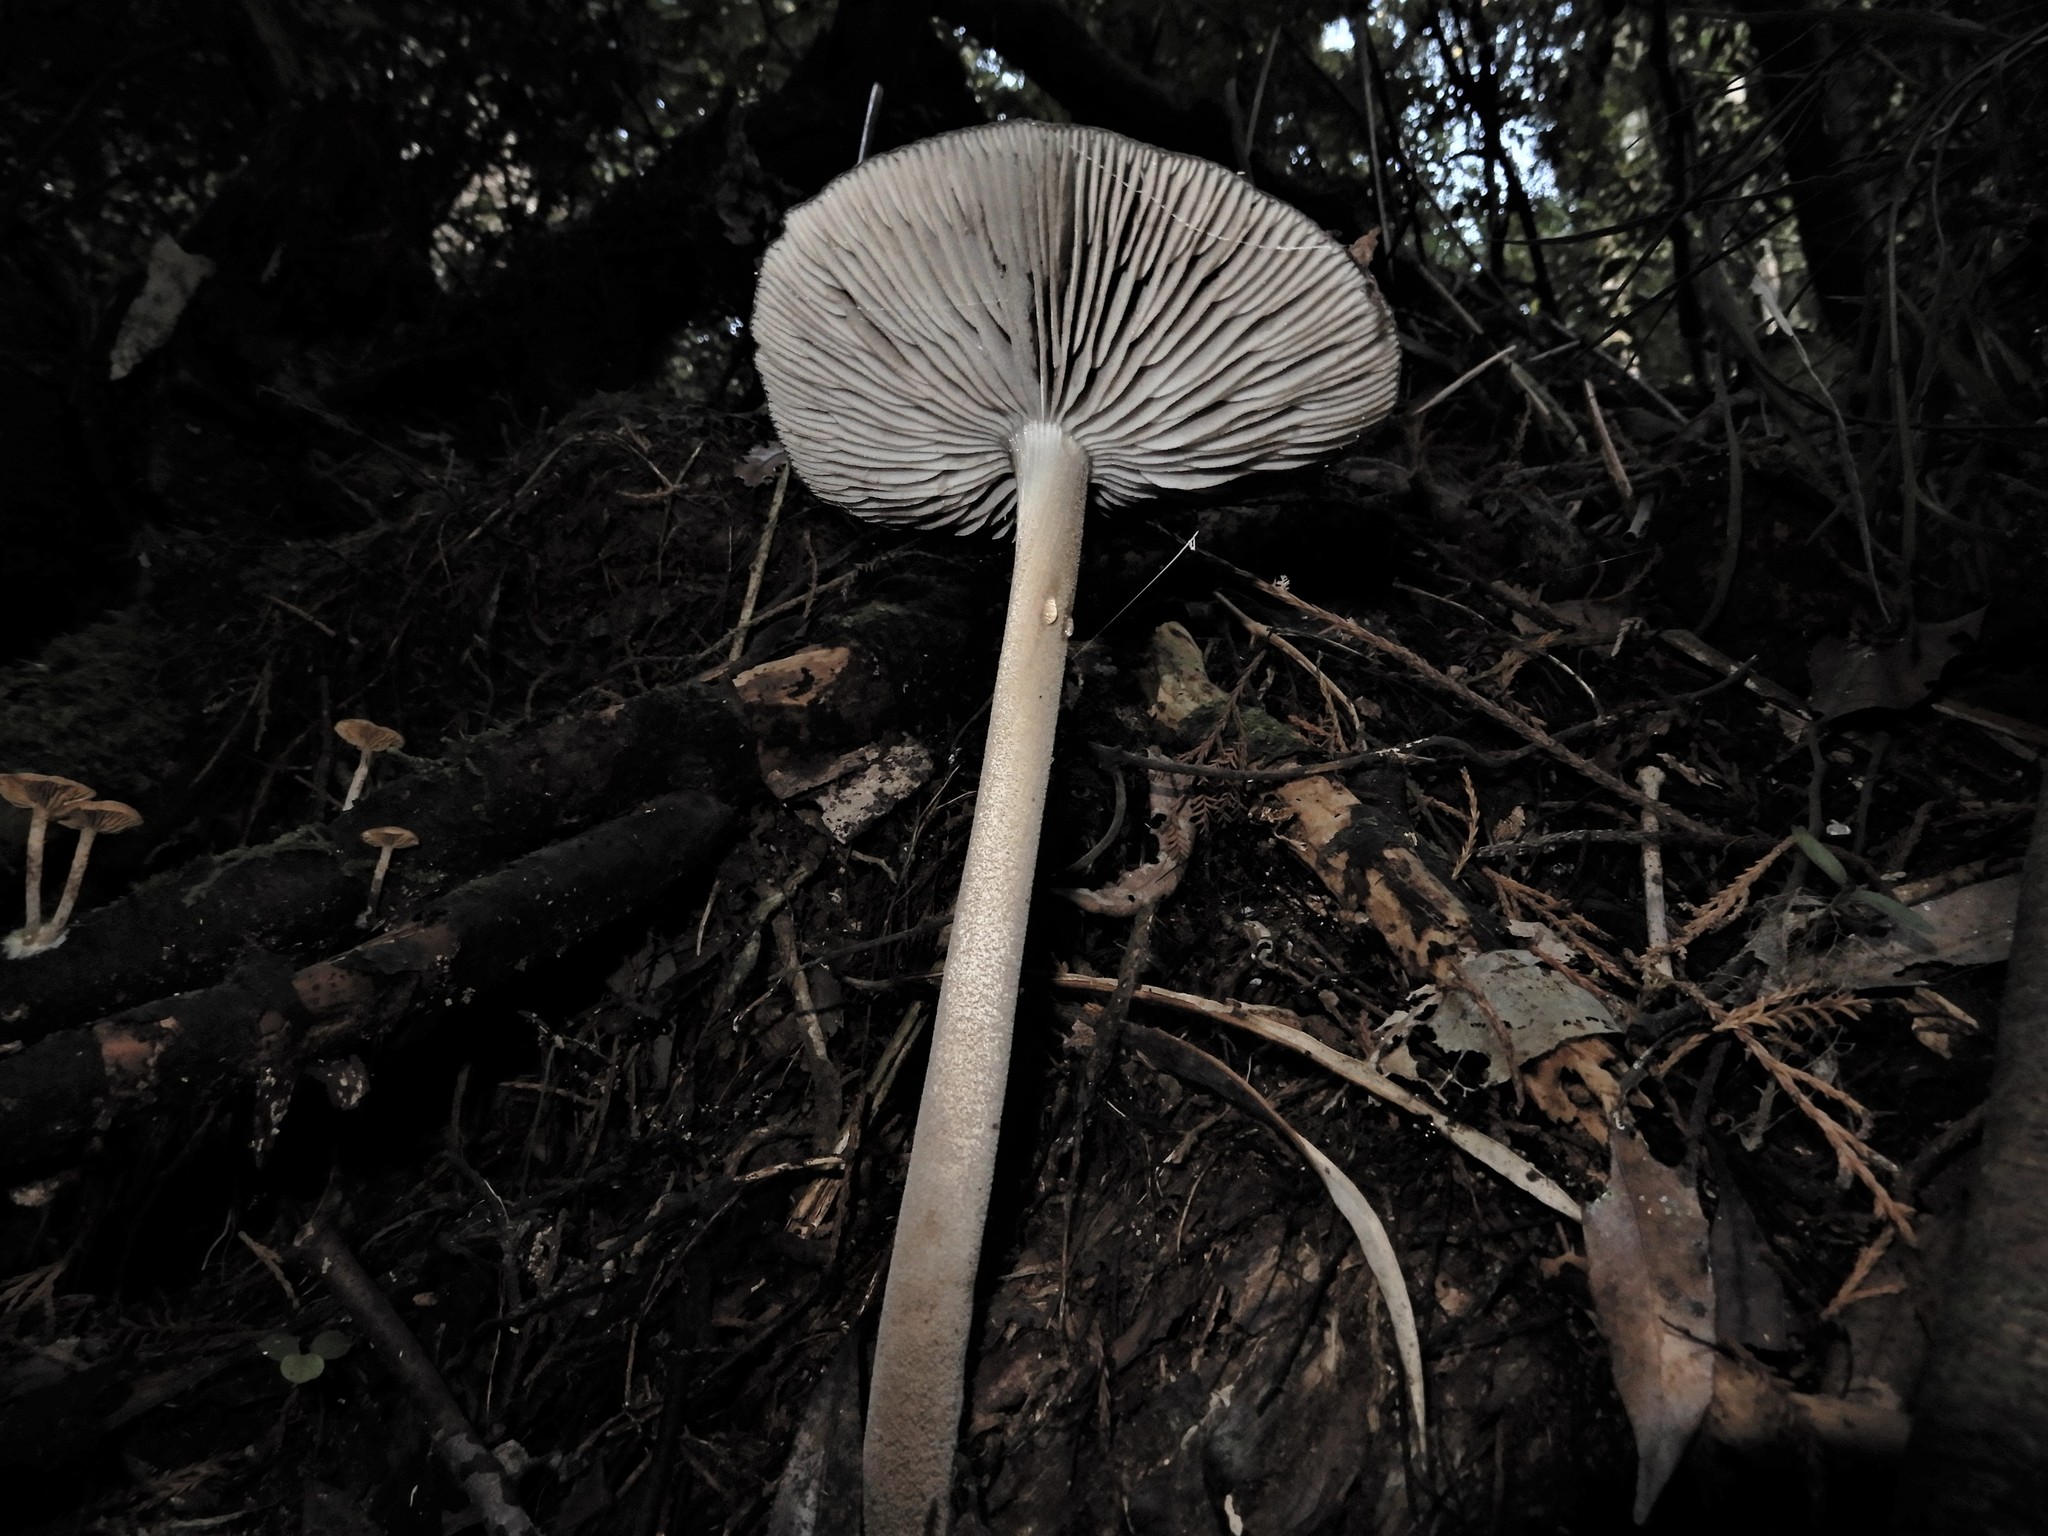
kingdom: Fungi
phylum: Basidiomycota
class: Agaricomycetes
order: Agaricales
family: Physalacriaceae
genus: Hymenopellis
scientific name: Hymenopellis colensoi
